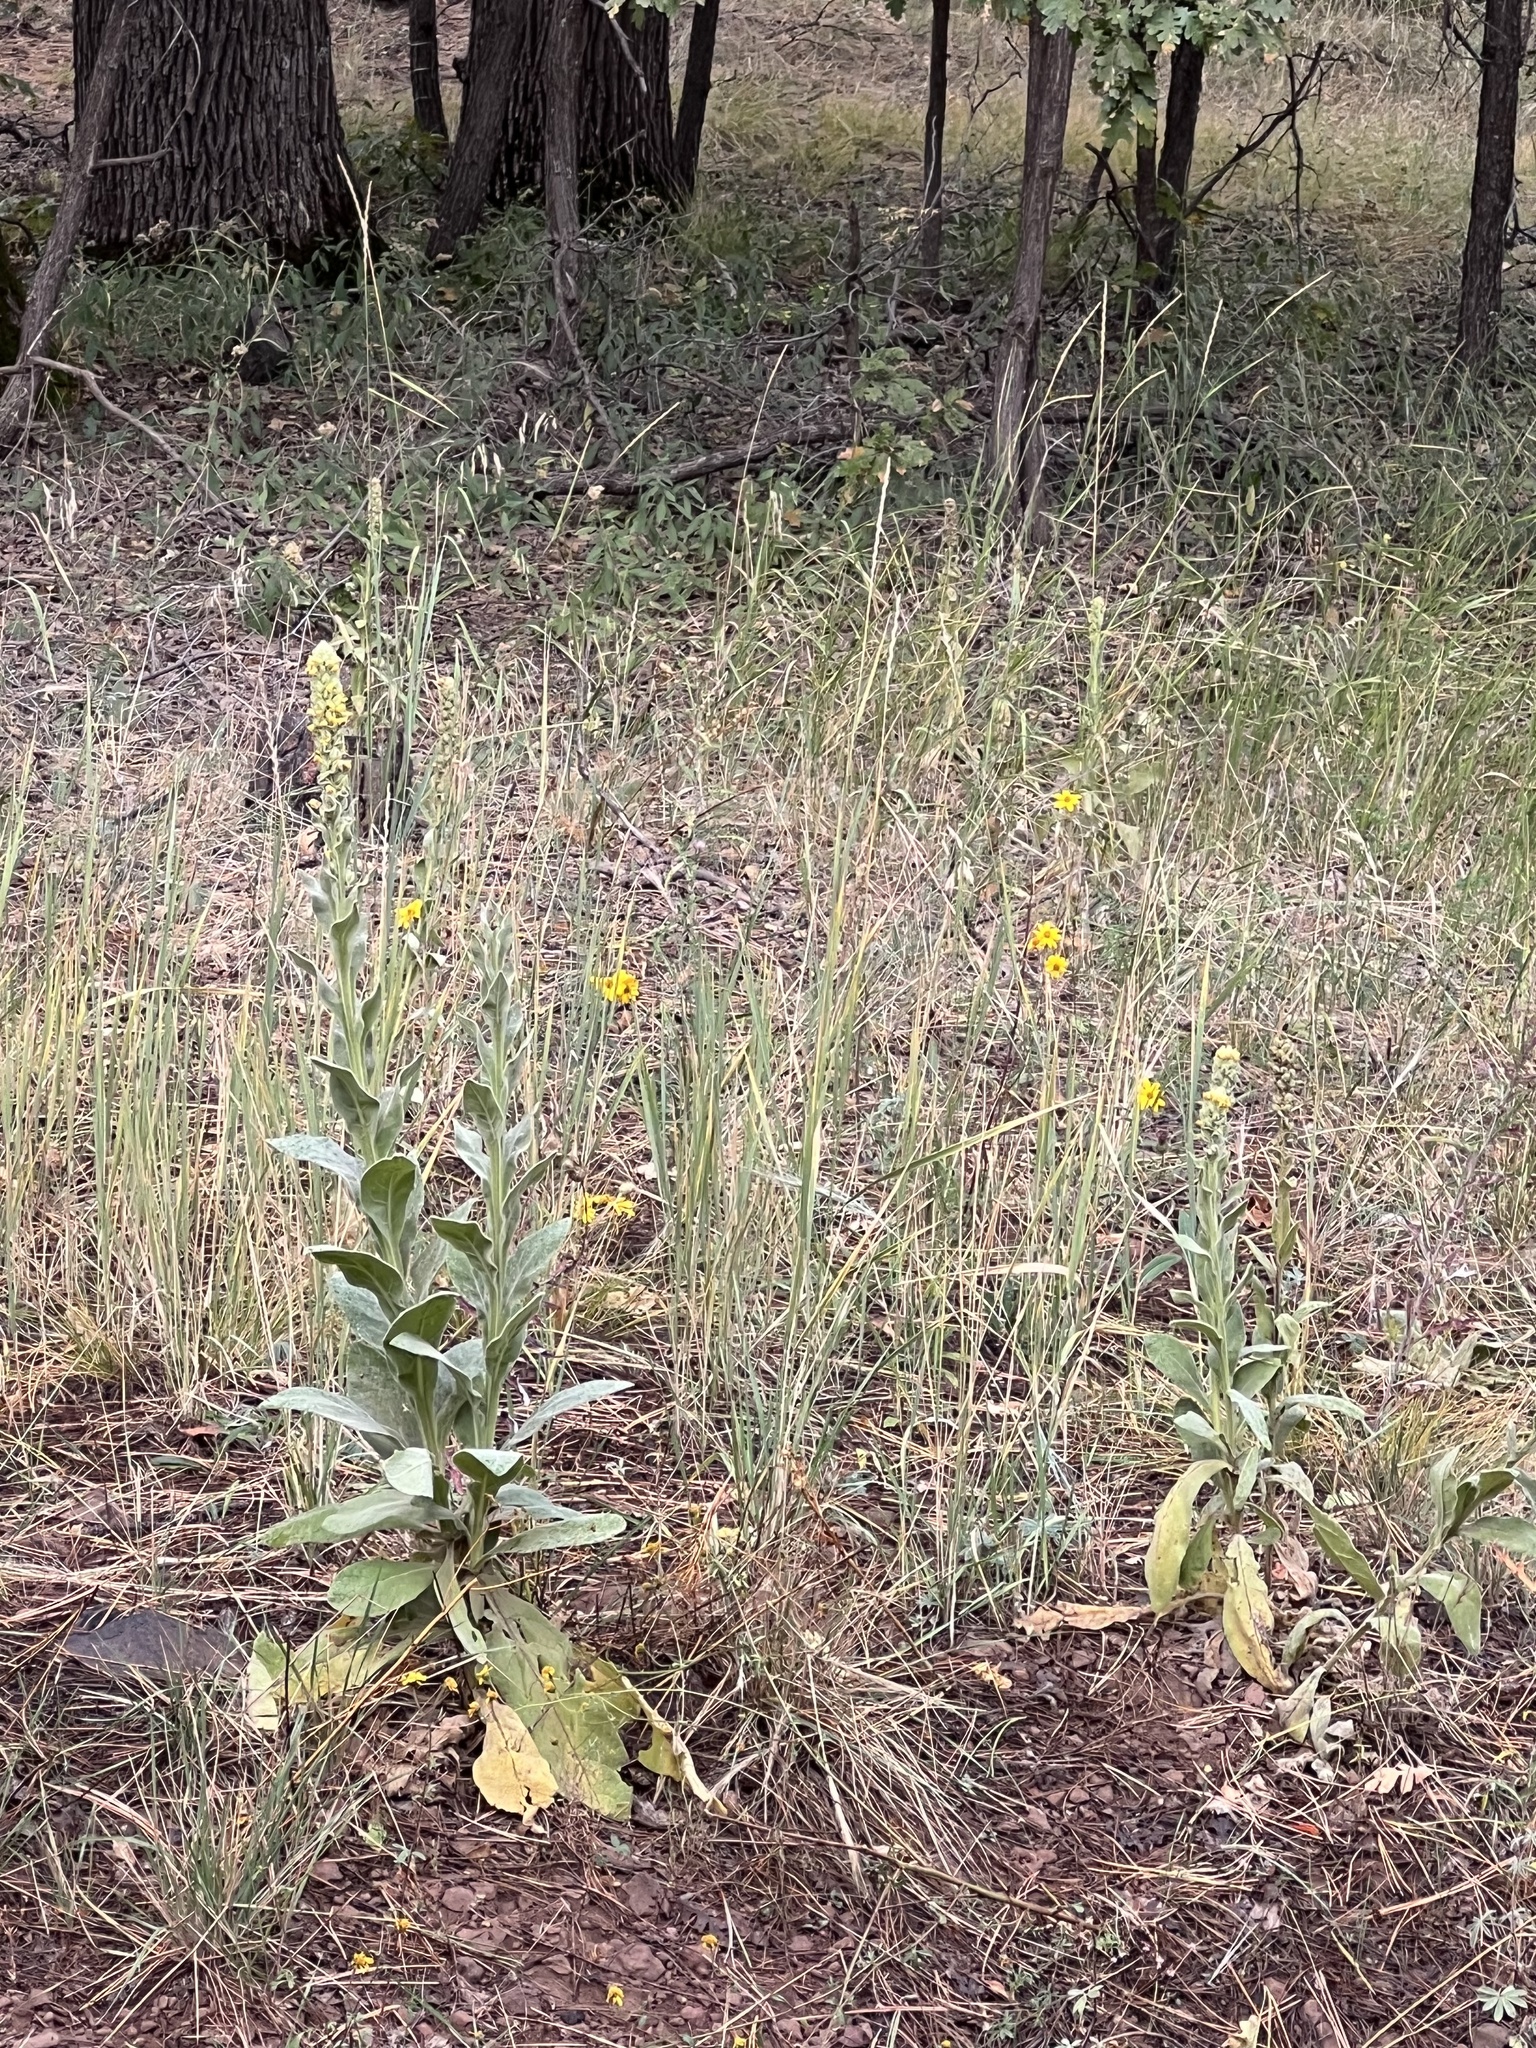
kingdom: Plantae
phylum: Tracheophyta
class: Magnoliopsida
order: Lamiales
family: Scrophulariaceae
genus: Verbascum
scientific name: Verbascum thapsus
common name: Common mullein
